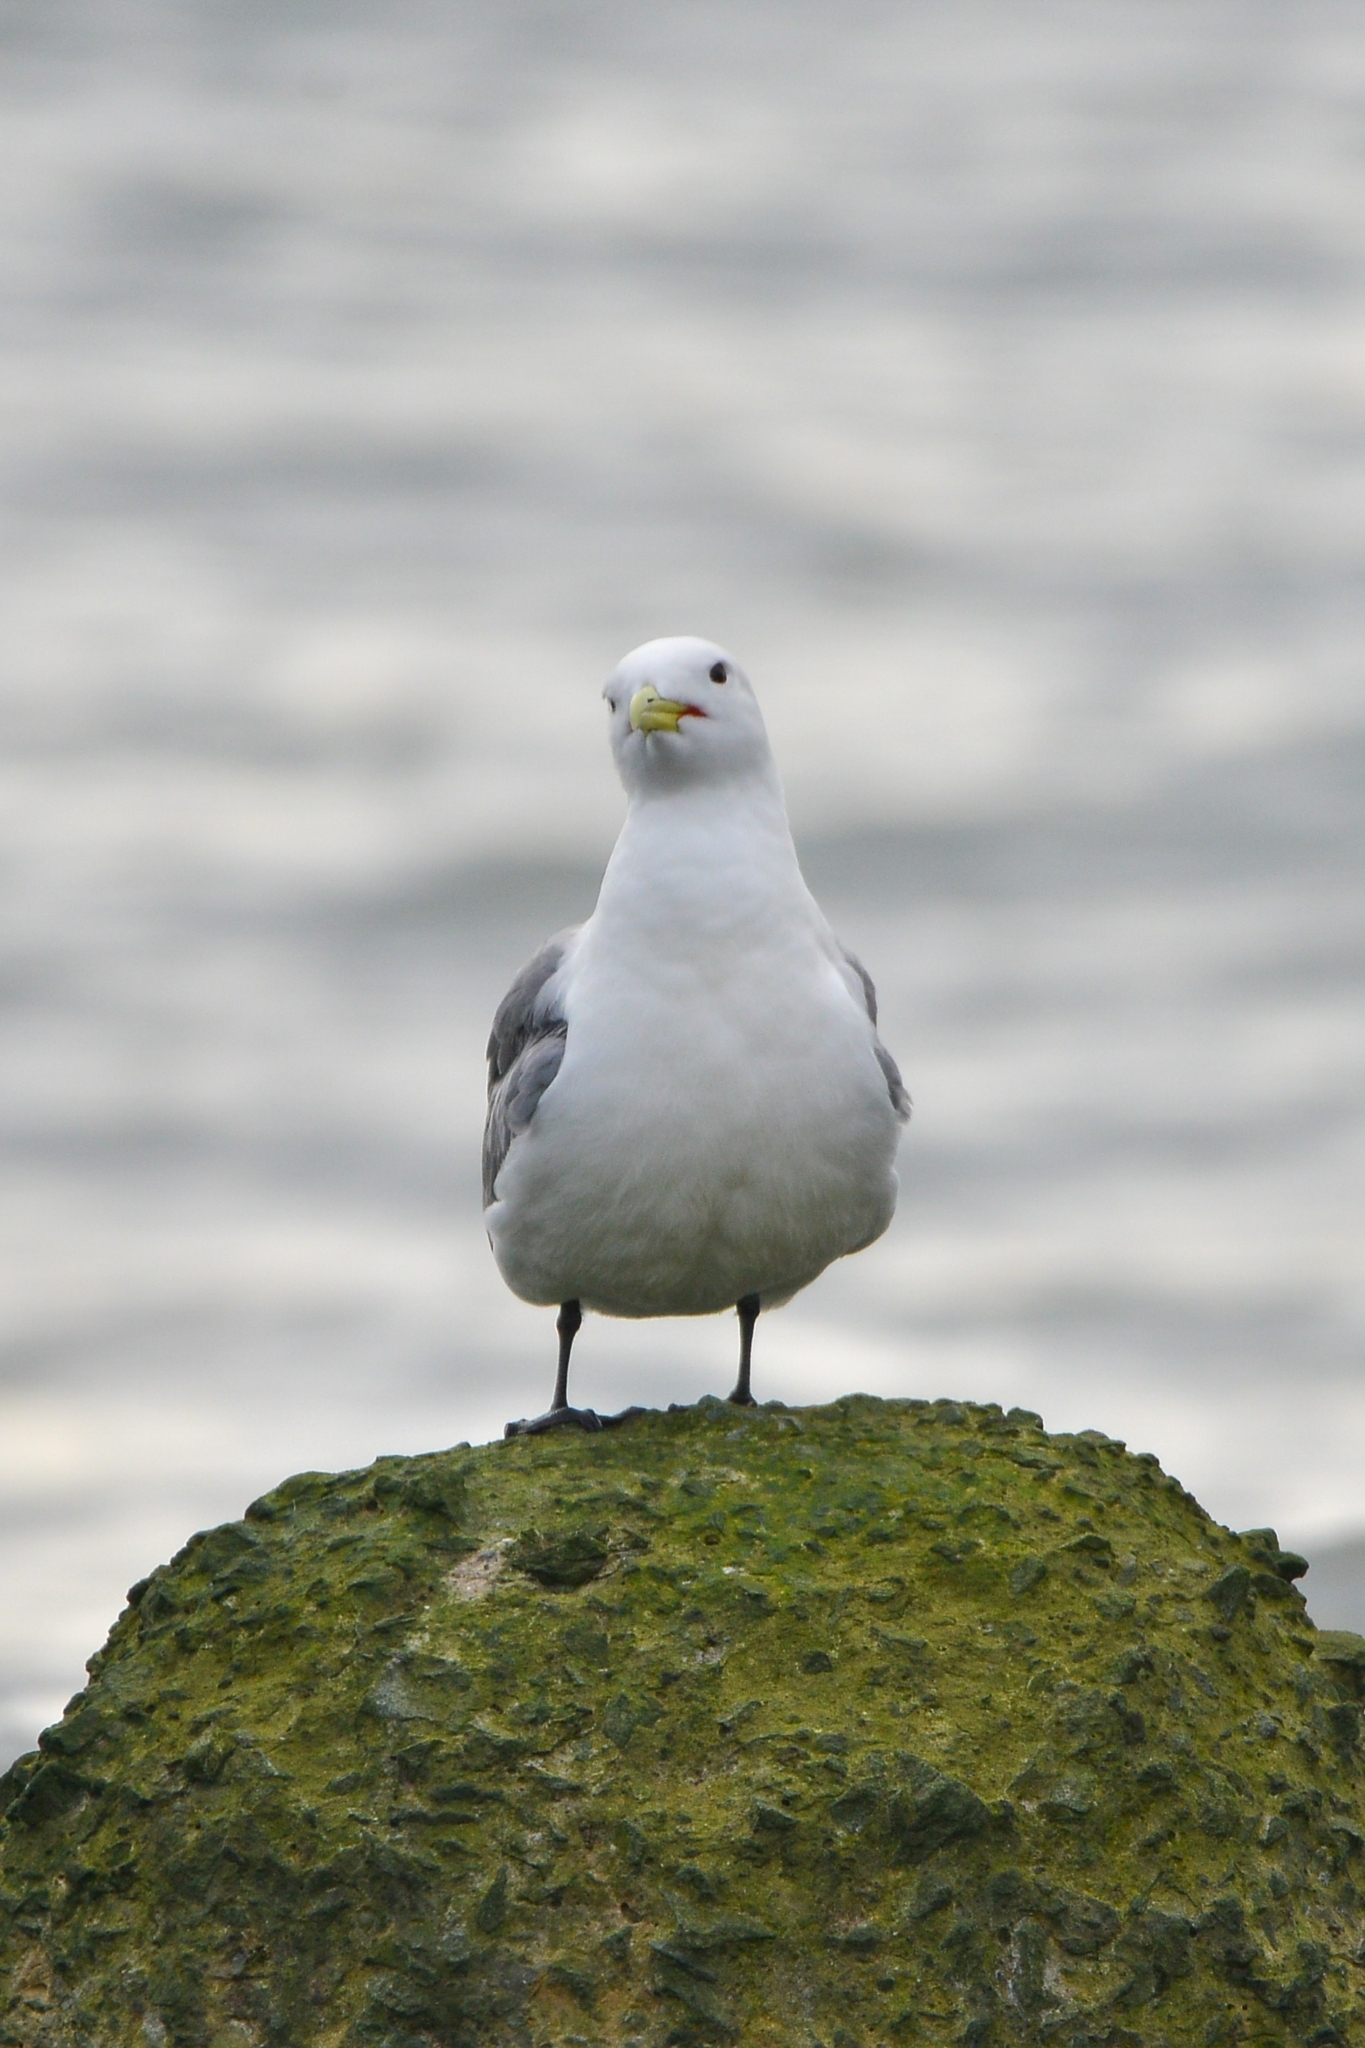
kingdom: Animalia
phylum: Chordata
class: Aves
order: Charadriiformes
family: Laridae
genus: Rissa
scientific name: Rissa tridactyla
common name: Black-legged kittiwake
